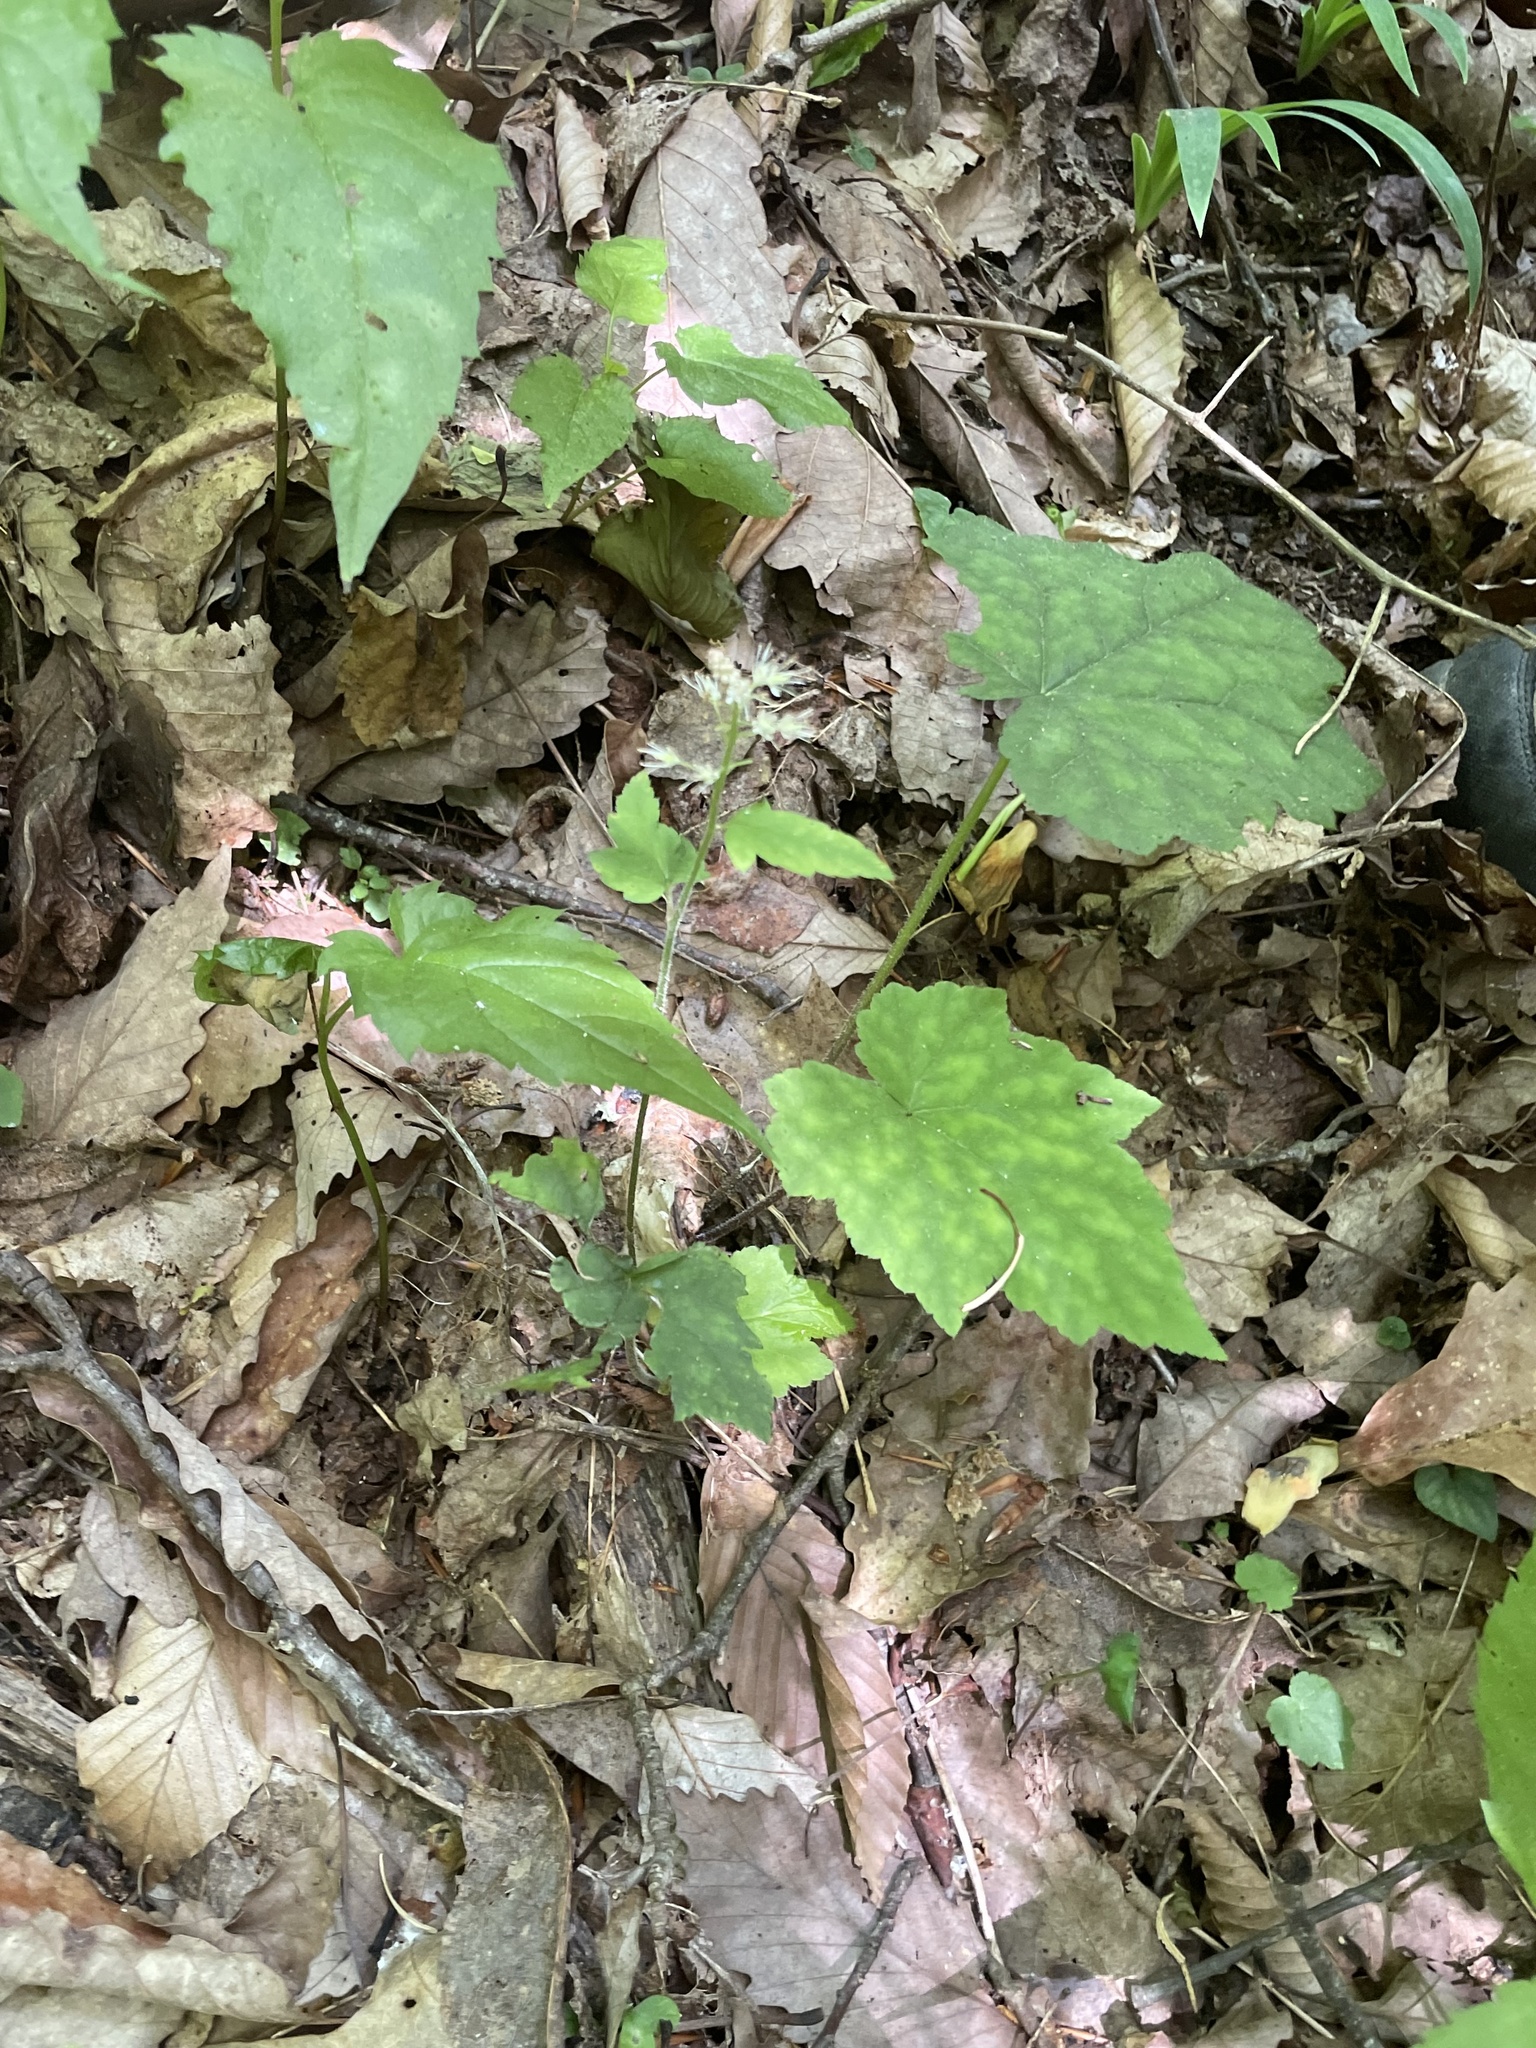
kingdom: Plantae
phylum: Tracheophyta
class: Magnoliopsida
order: Saxifragales
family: Saxifragaceae
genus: Tiarella
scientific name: Tiarella nautila
